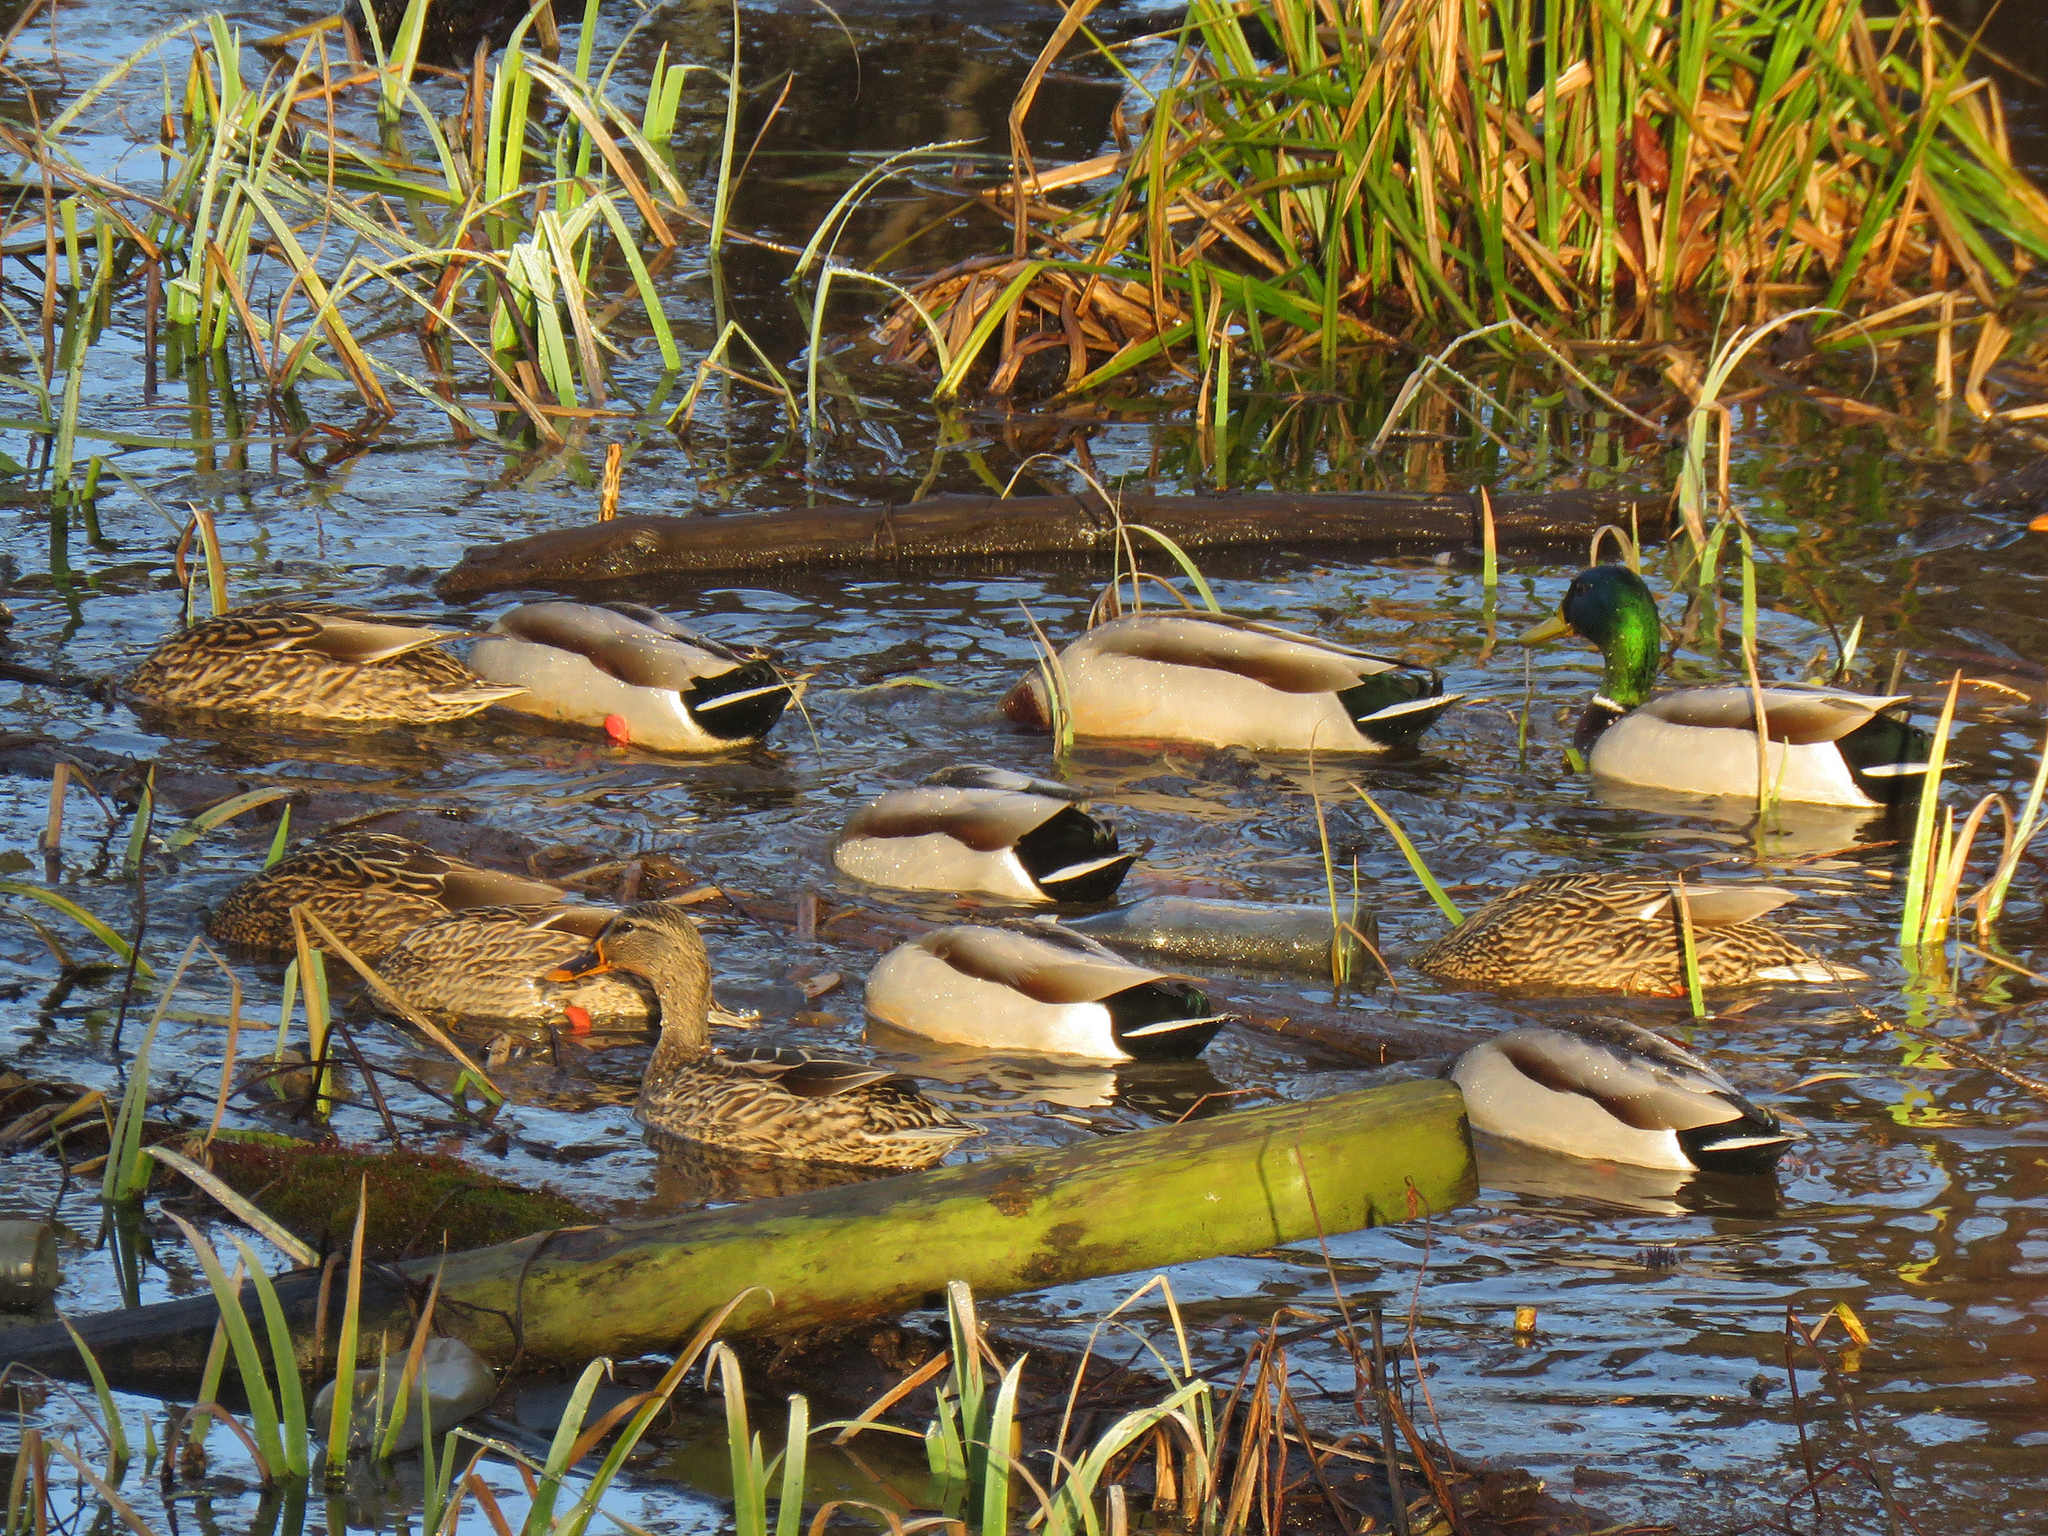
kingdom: Animalia
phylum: Chordata
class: Aves
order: Anseriformes
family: Anatidae
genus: Anas
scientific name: Anas platyrhynchos
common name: Mallard
